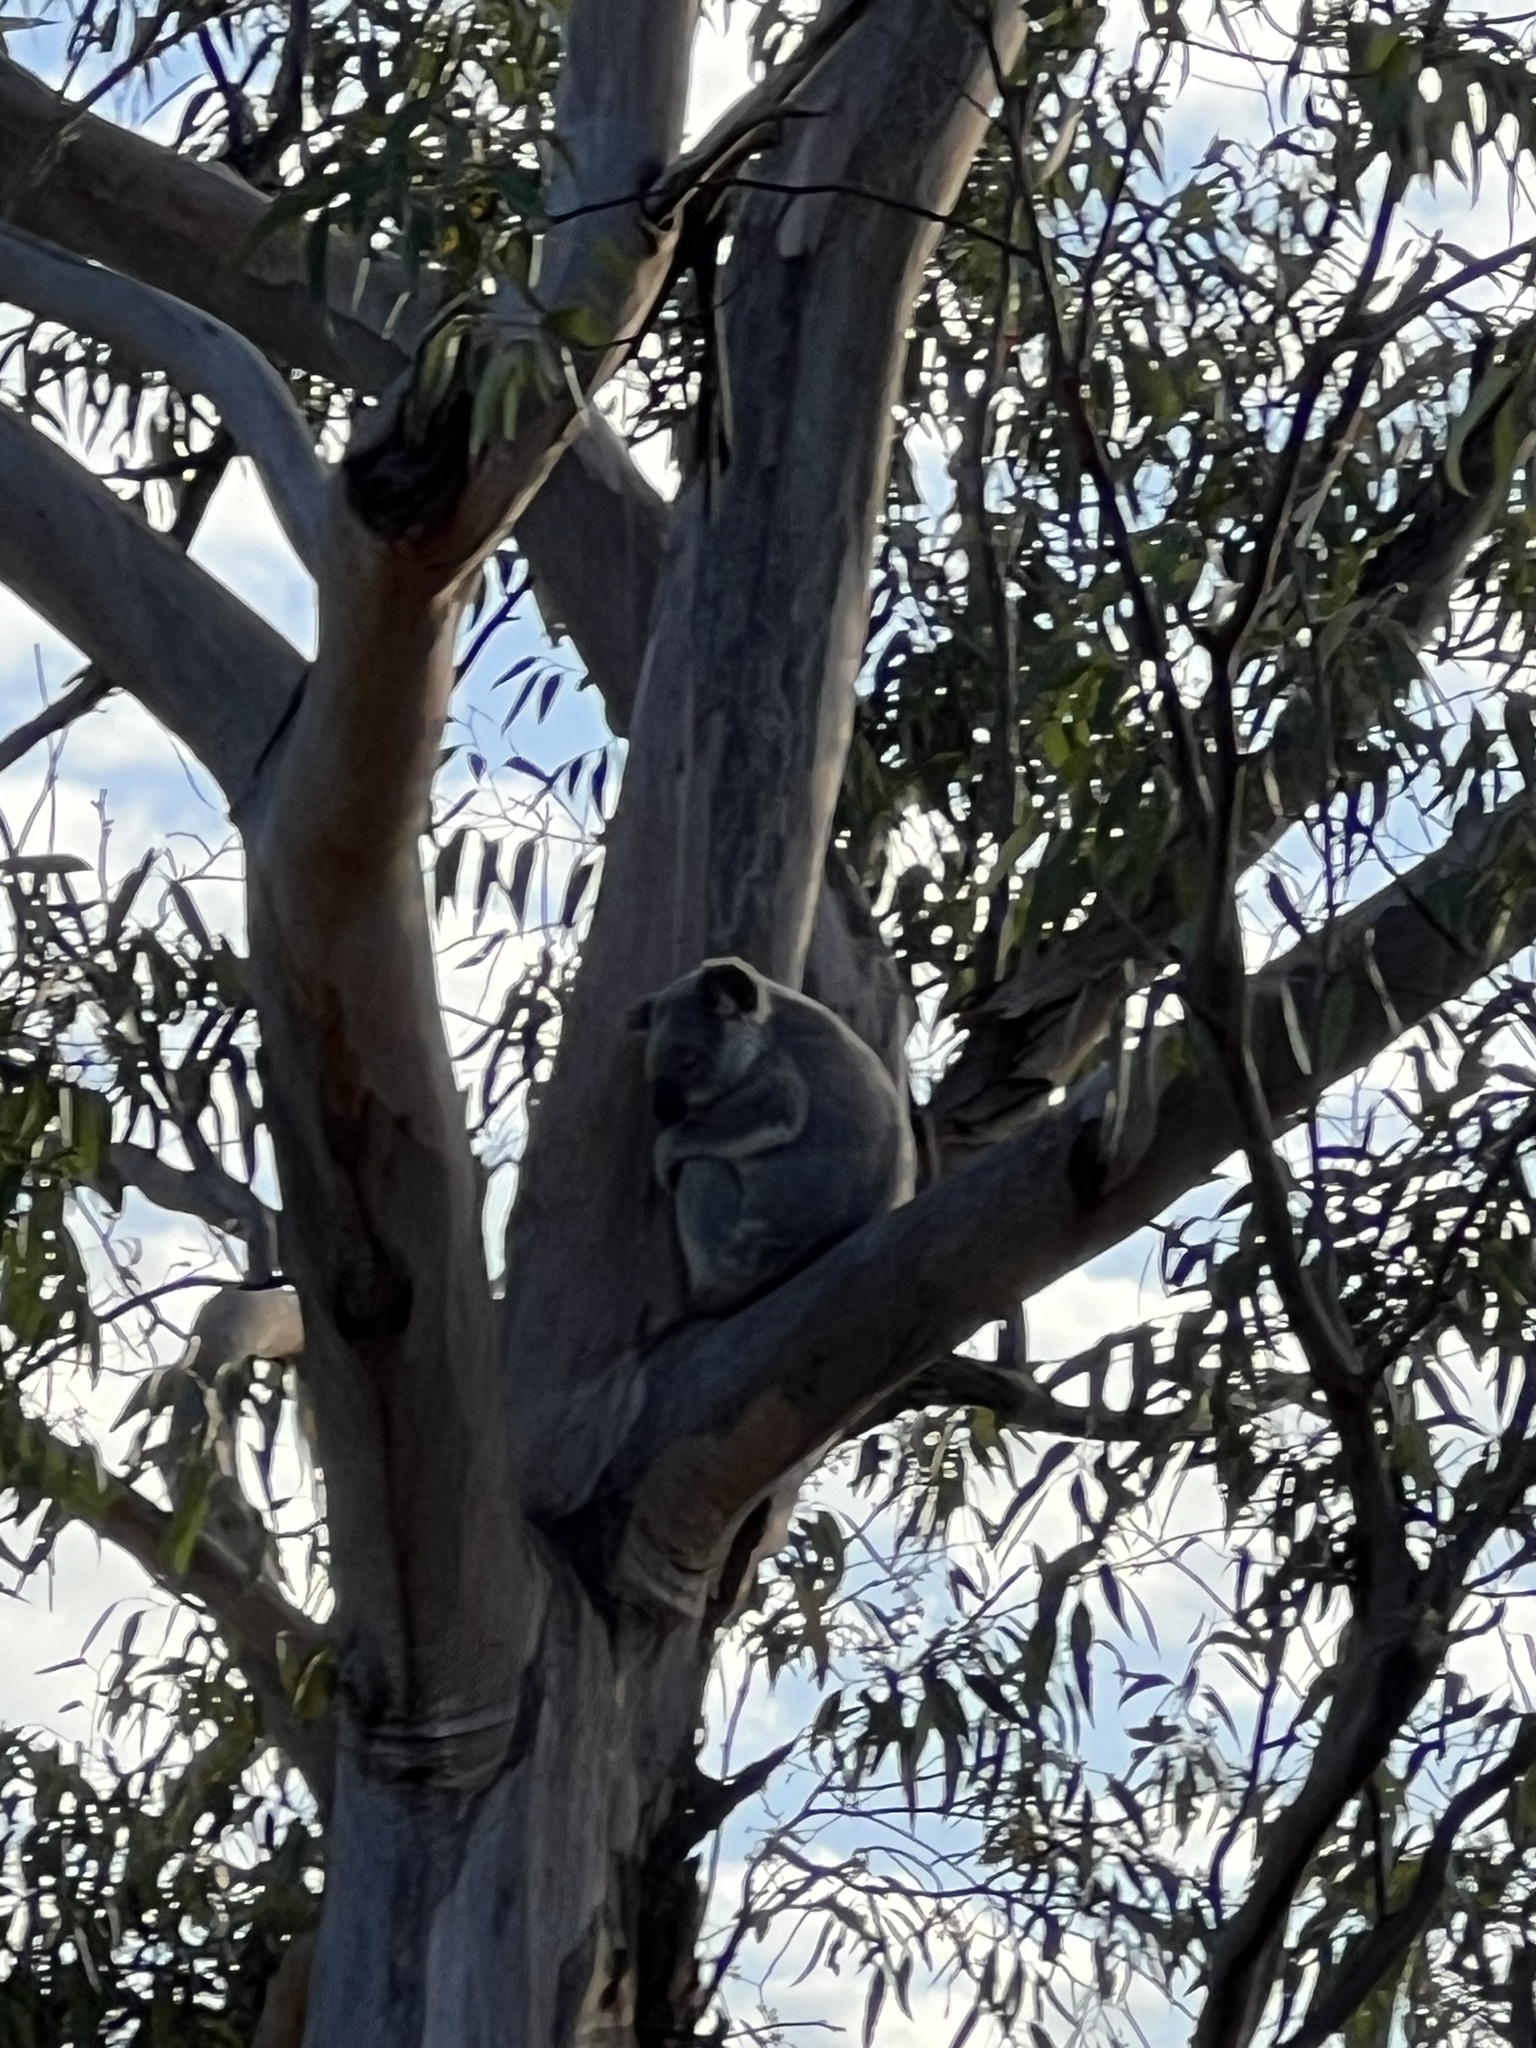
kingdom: Animalia
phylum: Chordata
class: Mammalia
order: Diprotodontia
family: Phascolarctidae
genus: Phascolarctos
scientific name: Phascolarctos cinereus
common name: Koala
